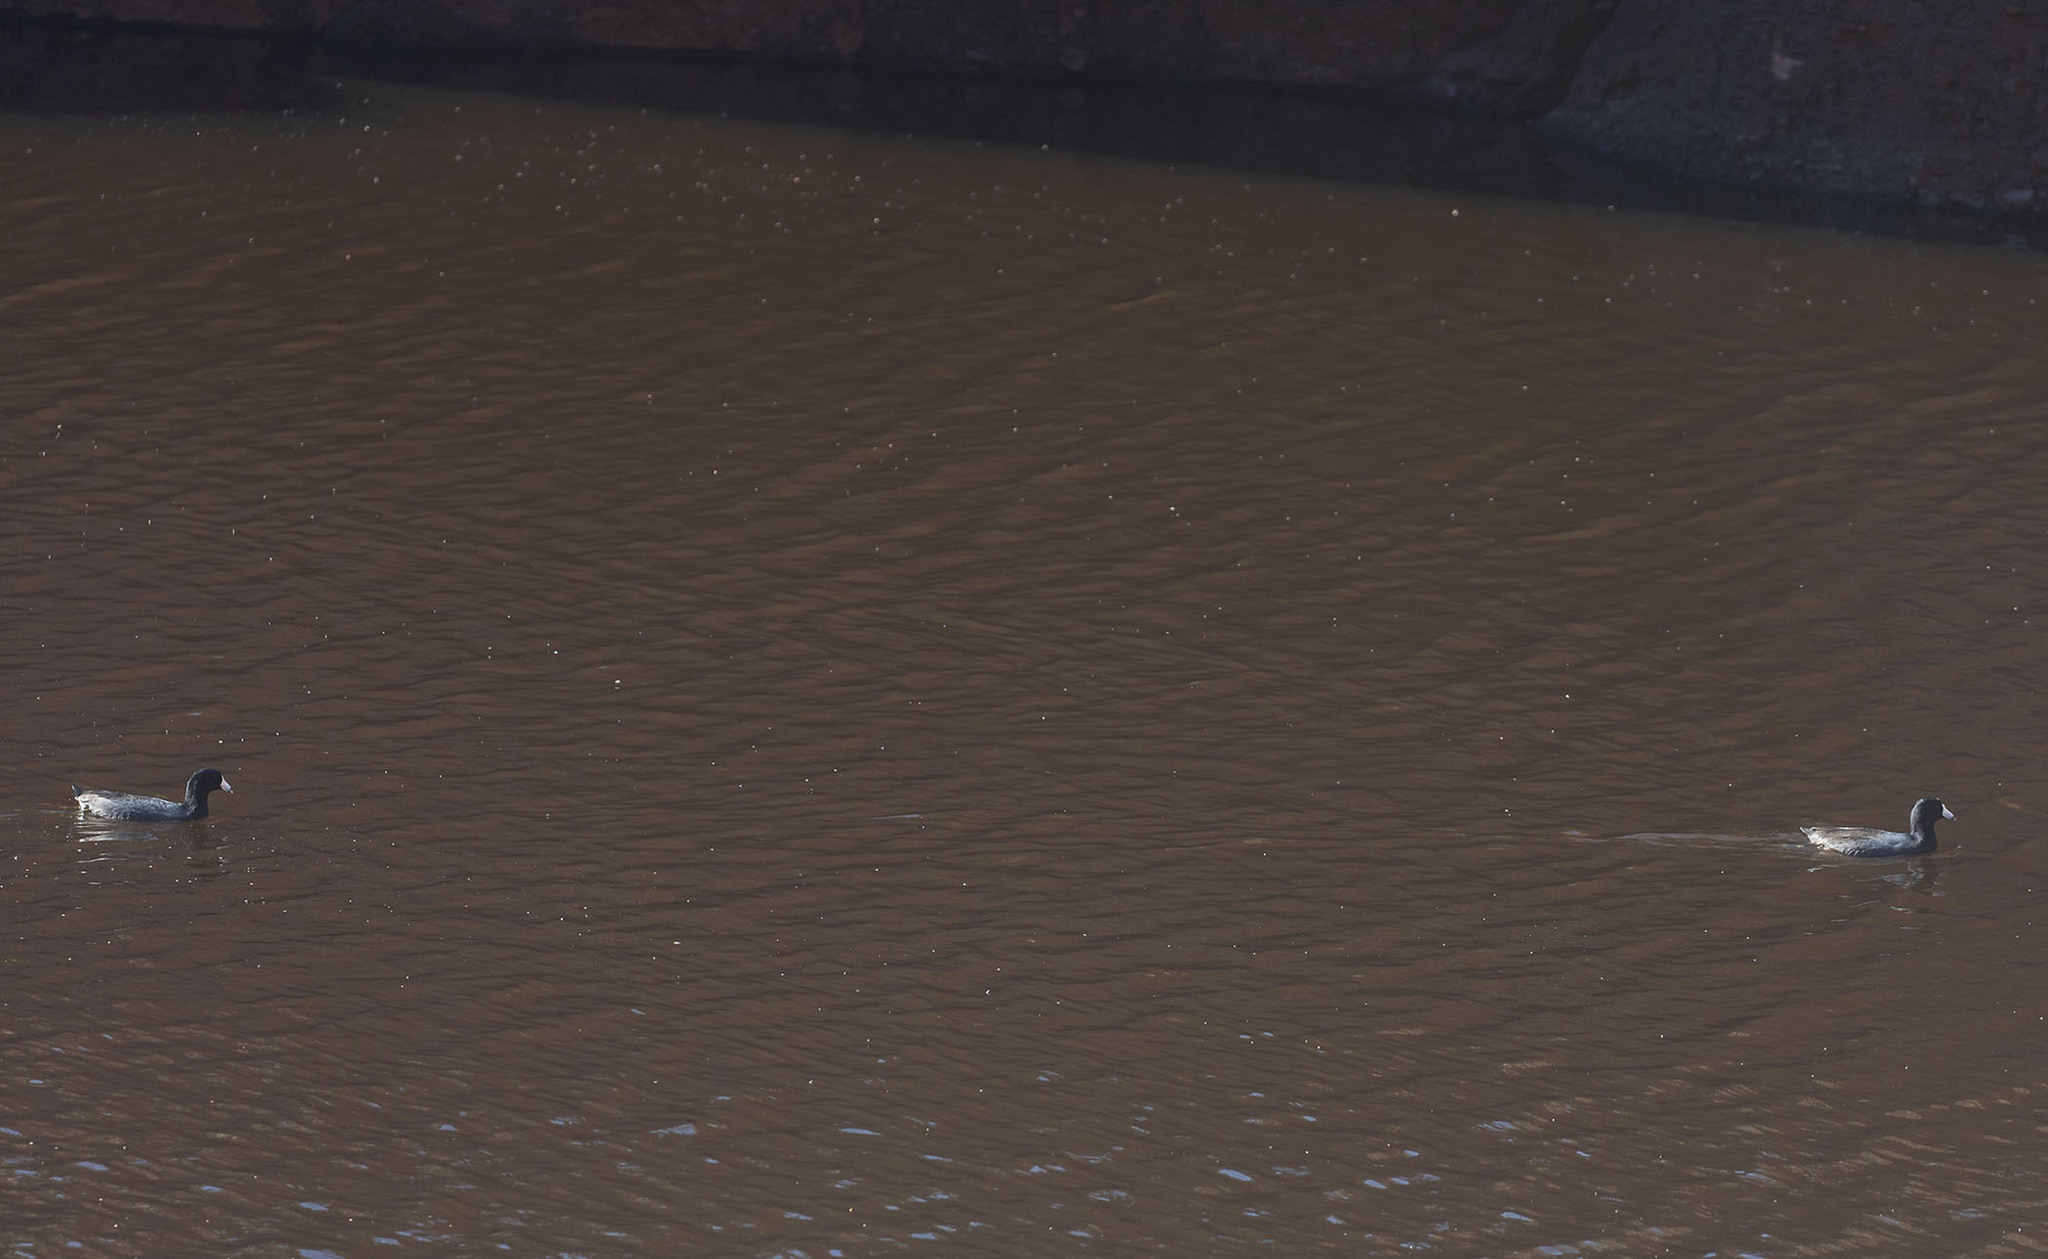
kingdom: Animalia
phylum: Chordata
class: Aves
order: Gruiformes
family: Rallidae
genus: Fulica
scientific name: Fulica americana
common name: American coot
